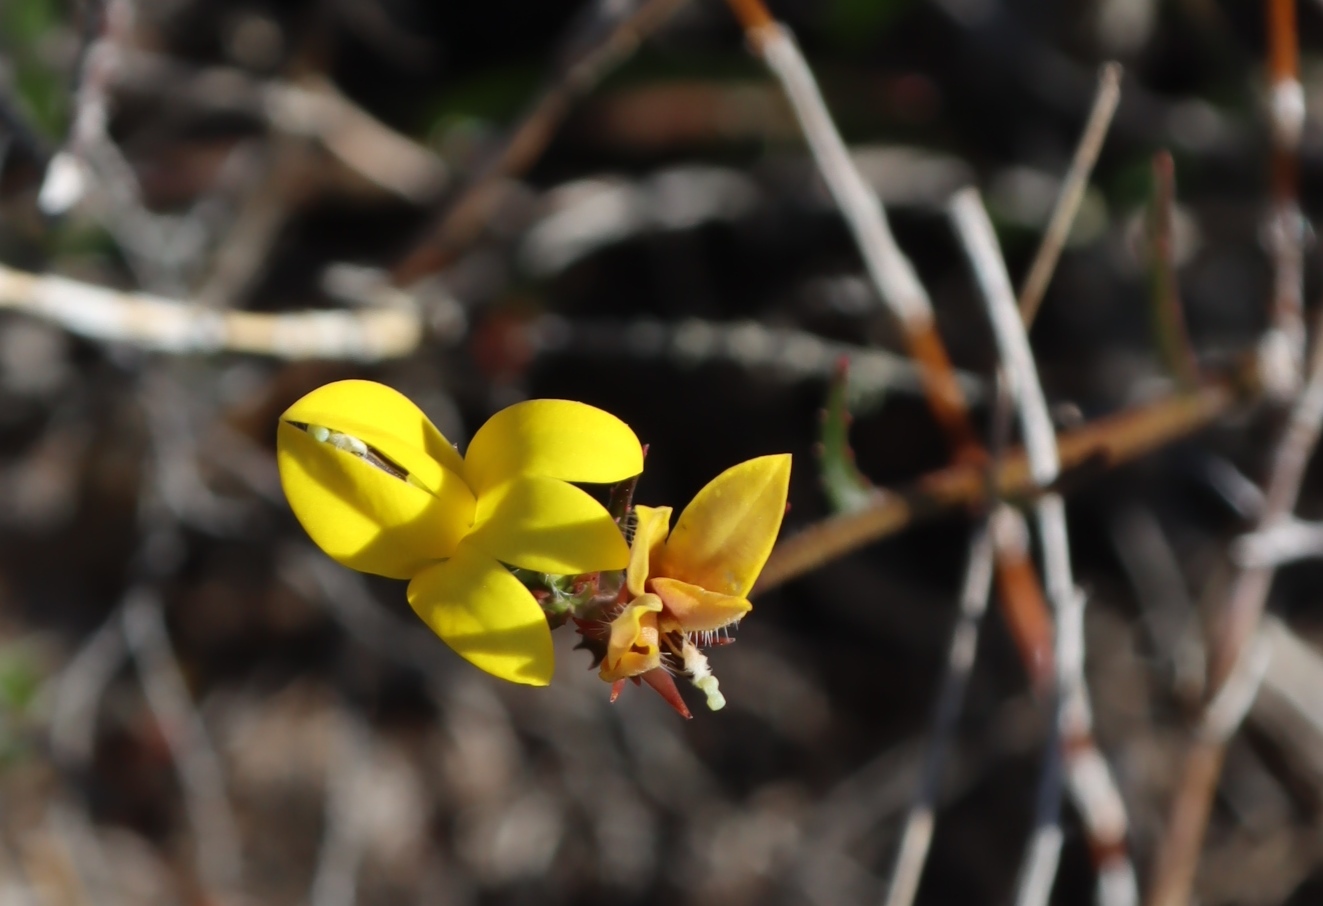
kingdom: Plantae
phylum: Tracheophyta
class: Magnoliopsida
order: Asterales
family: Campanulaceae
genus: Monopsis
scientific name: Monopsis lutea
